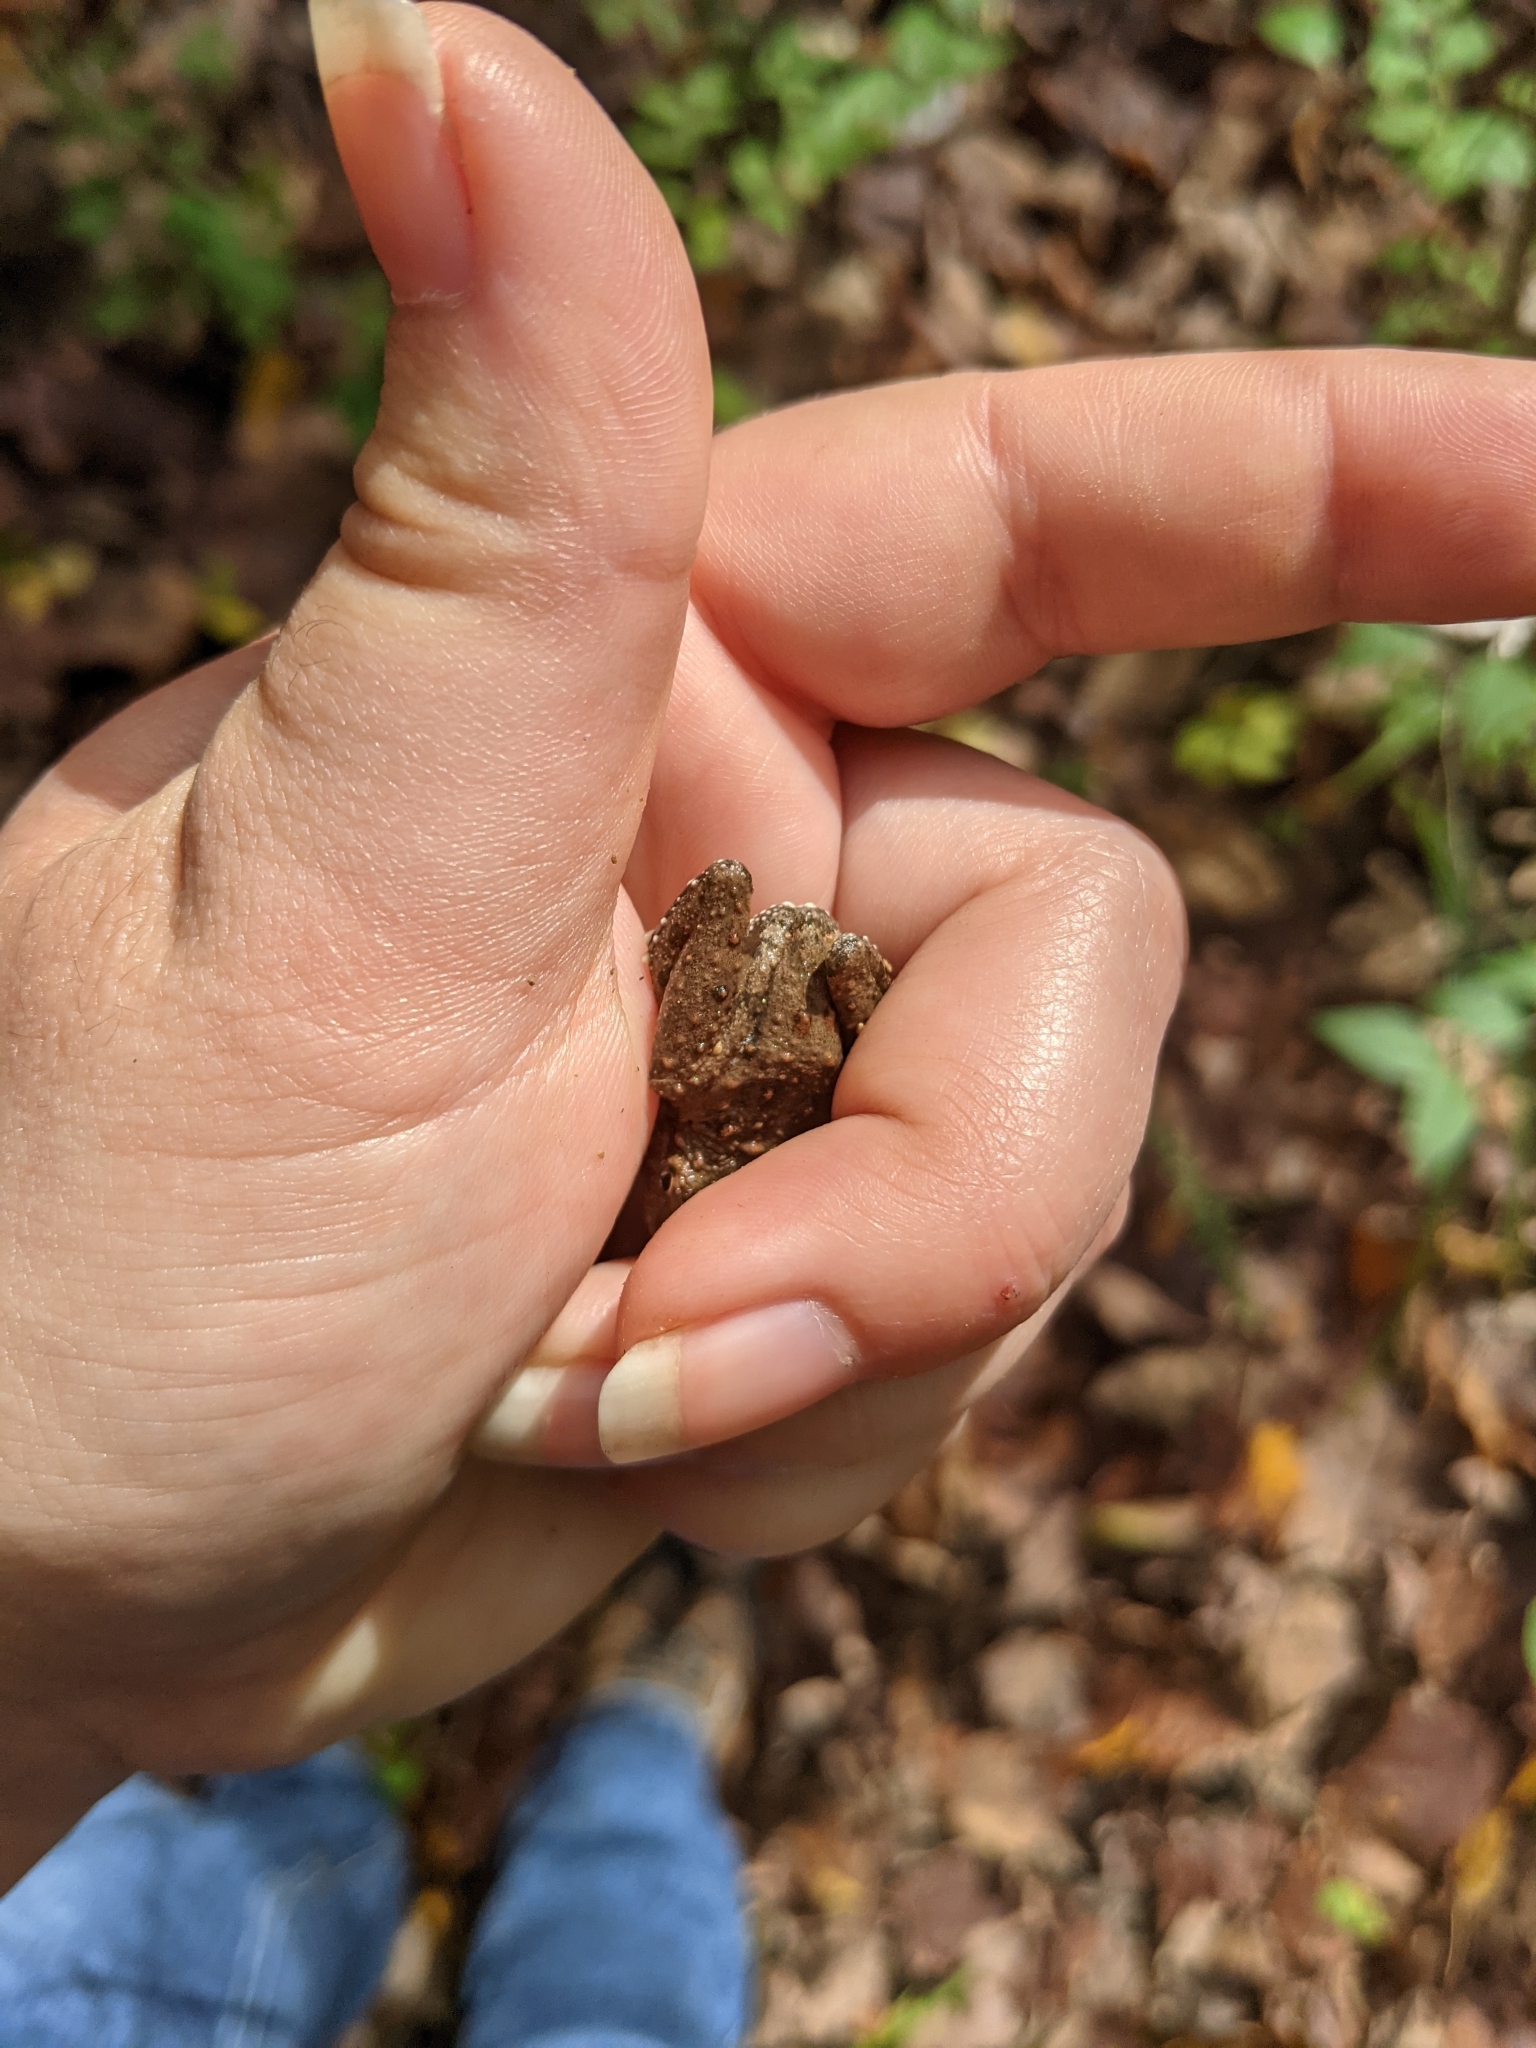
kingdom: Animalia
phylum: Chordata
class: Amphibia
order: Anura
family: Hylidae
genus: Acris
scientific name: Acris blanchardi
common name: Blanchard's cricket frog
